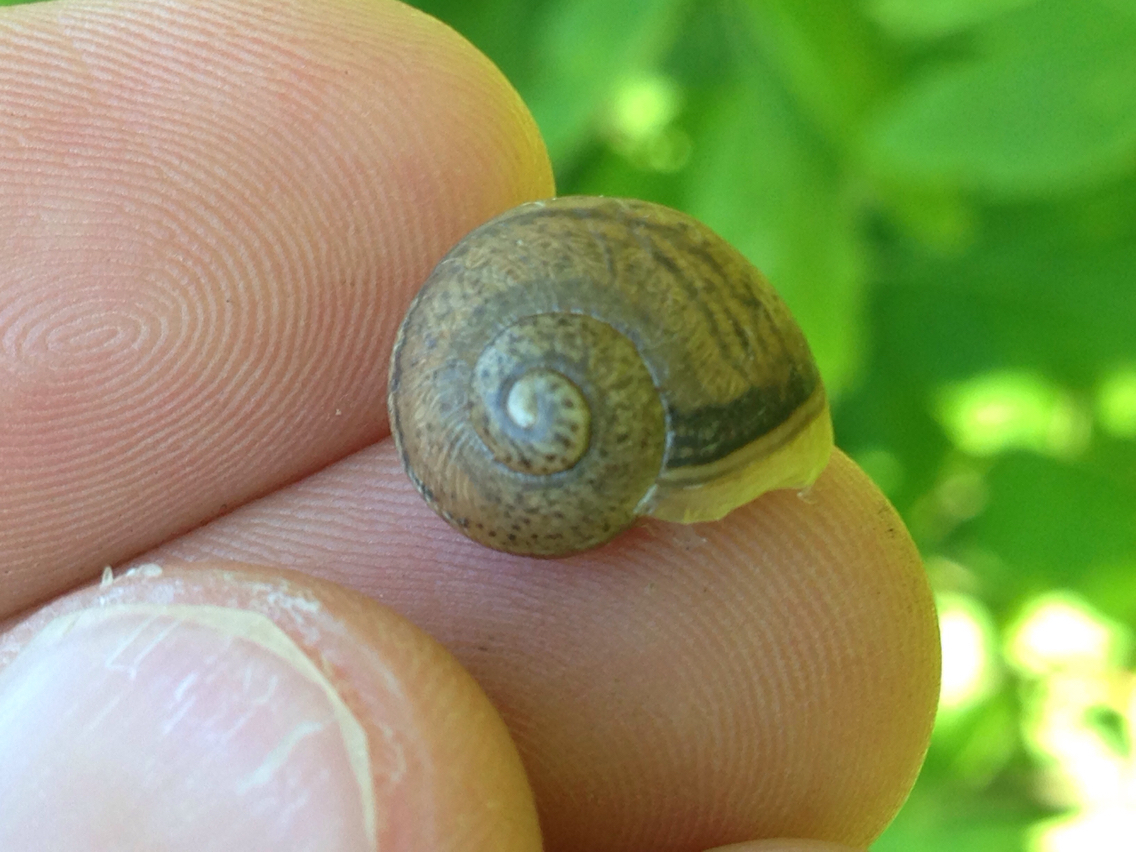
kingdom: Animalia
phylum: Mollusca
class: Gastropoda
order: Stylommatophora
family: Helicidae
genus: Cornu
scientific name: Cornu aspersum
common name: Brown garden snail
